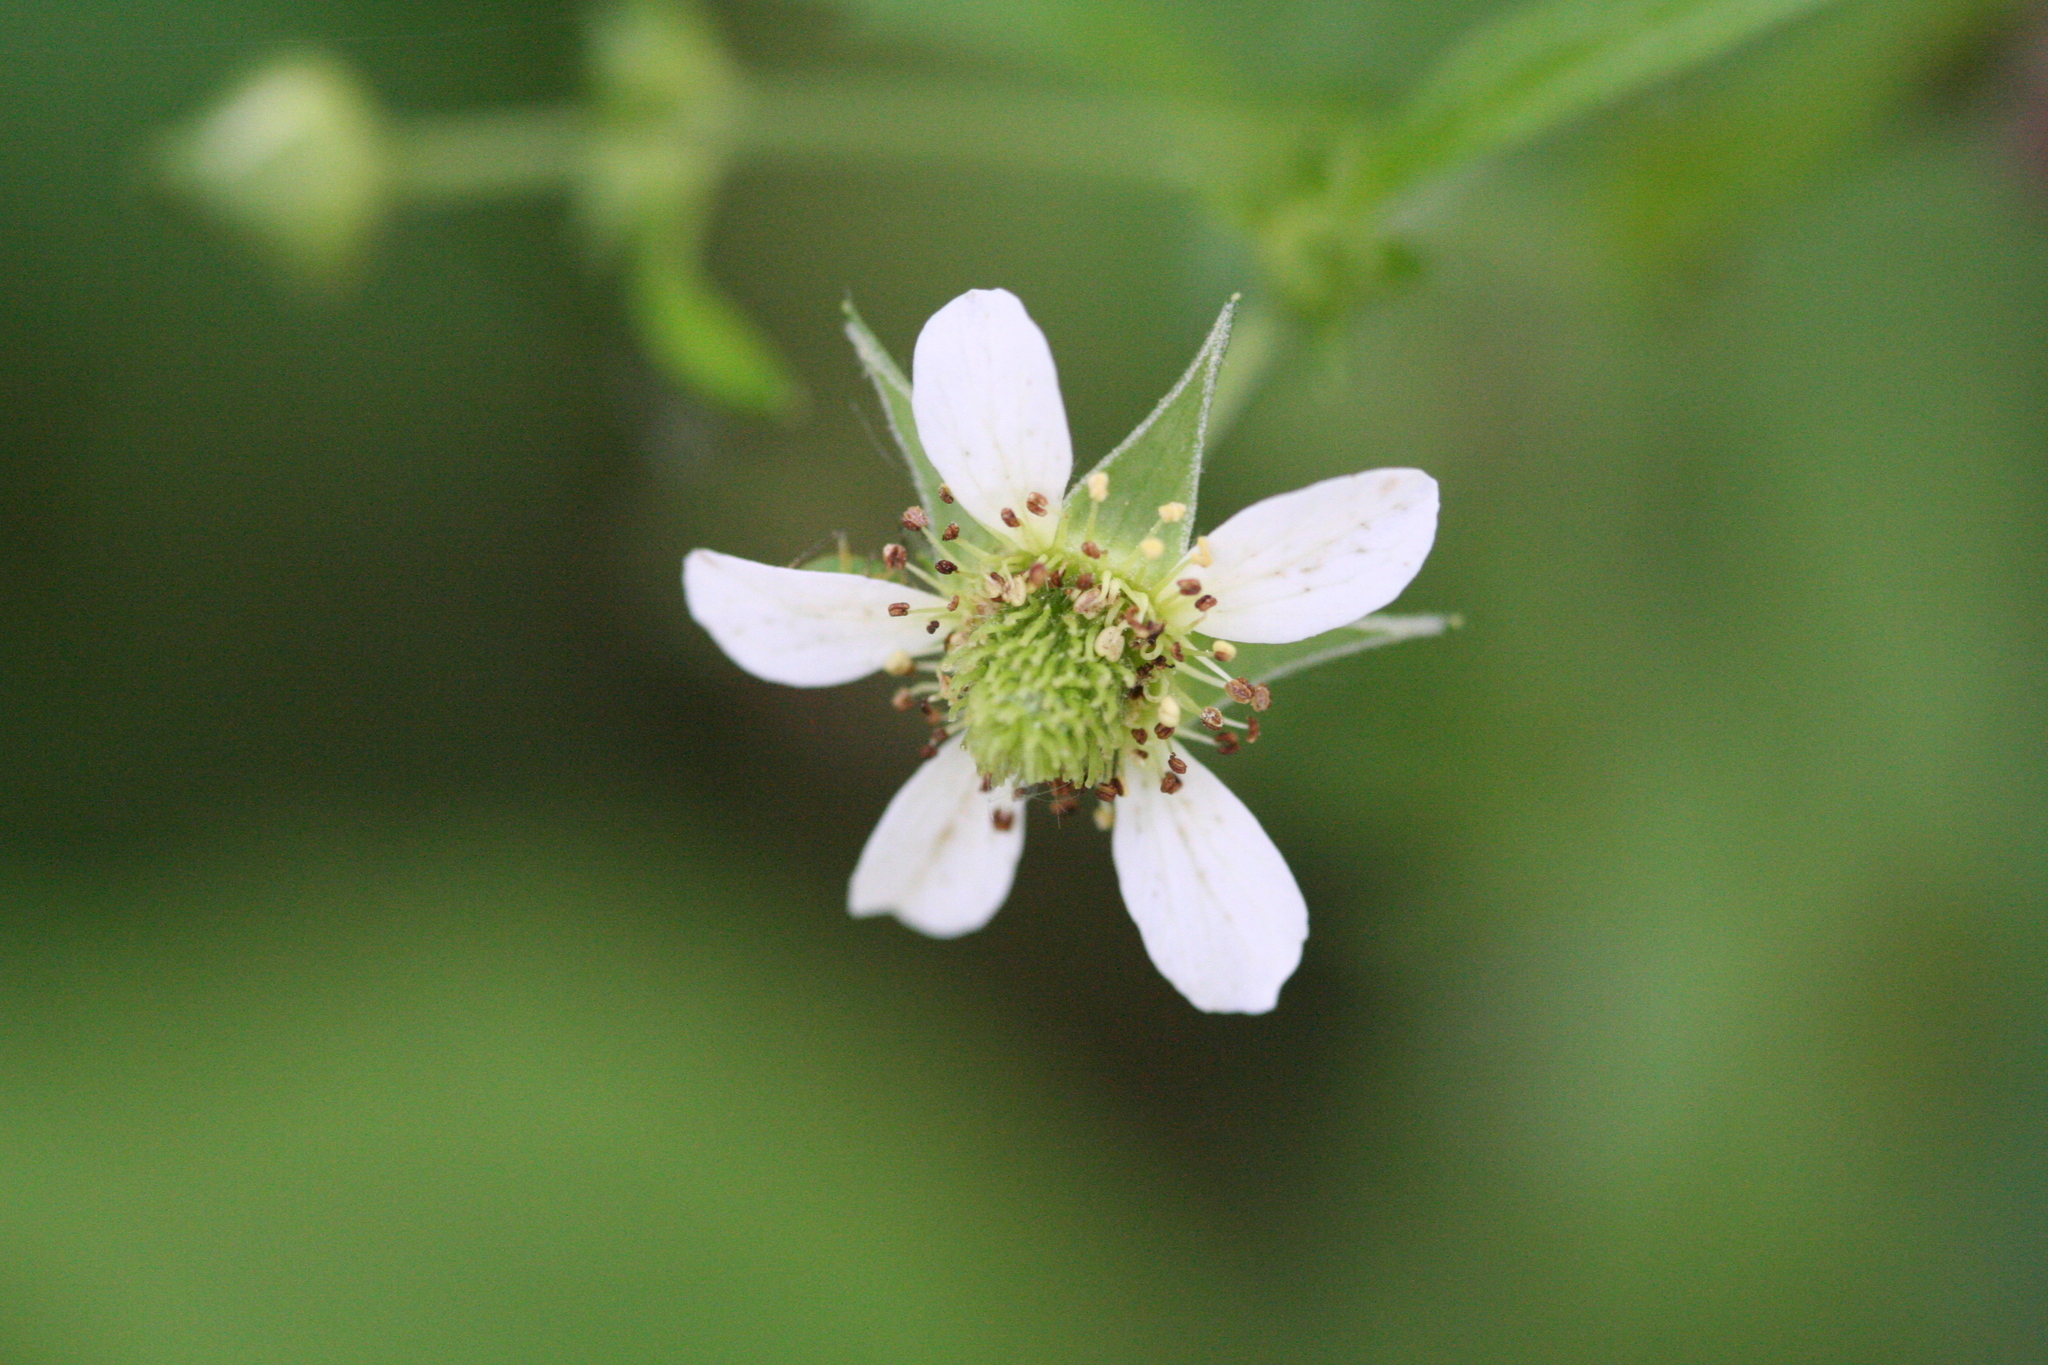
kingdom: Plantae
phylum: Tracheophyta
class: Magnoliopsida
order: Rosales
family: Rosaceae
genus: Geum
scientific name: Geum canadense
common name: White avens
